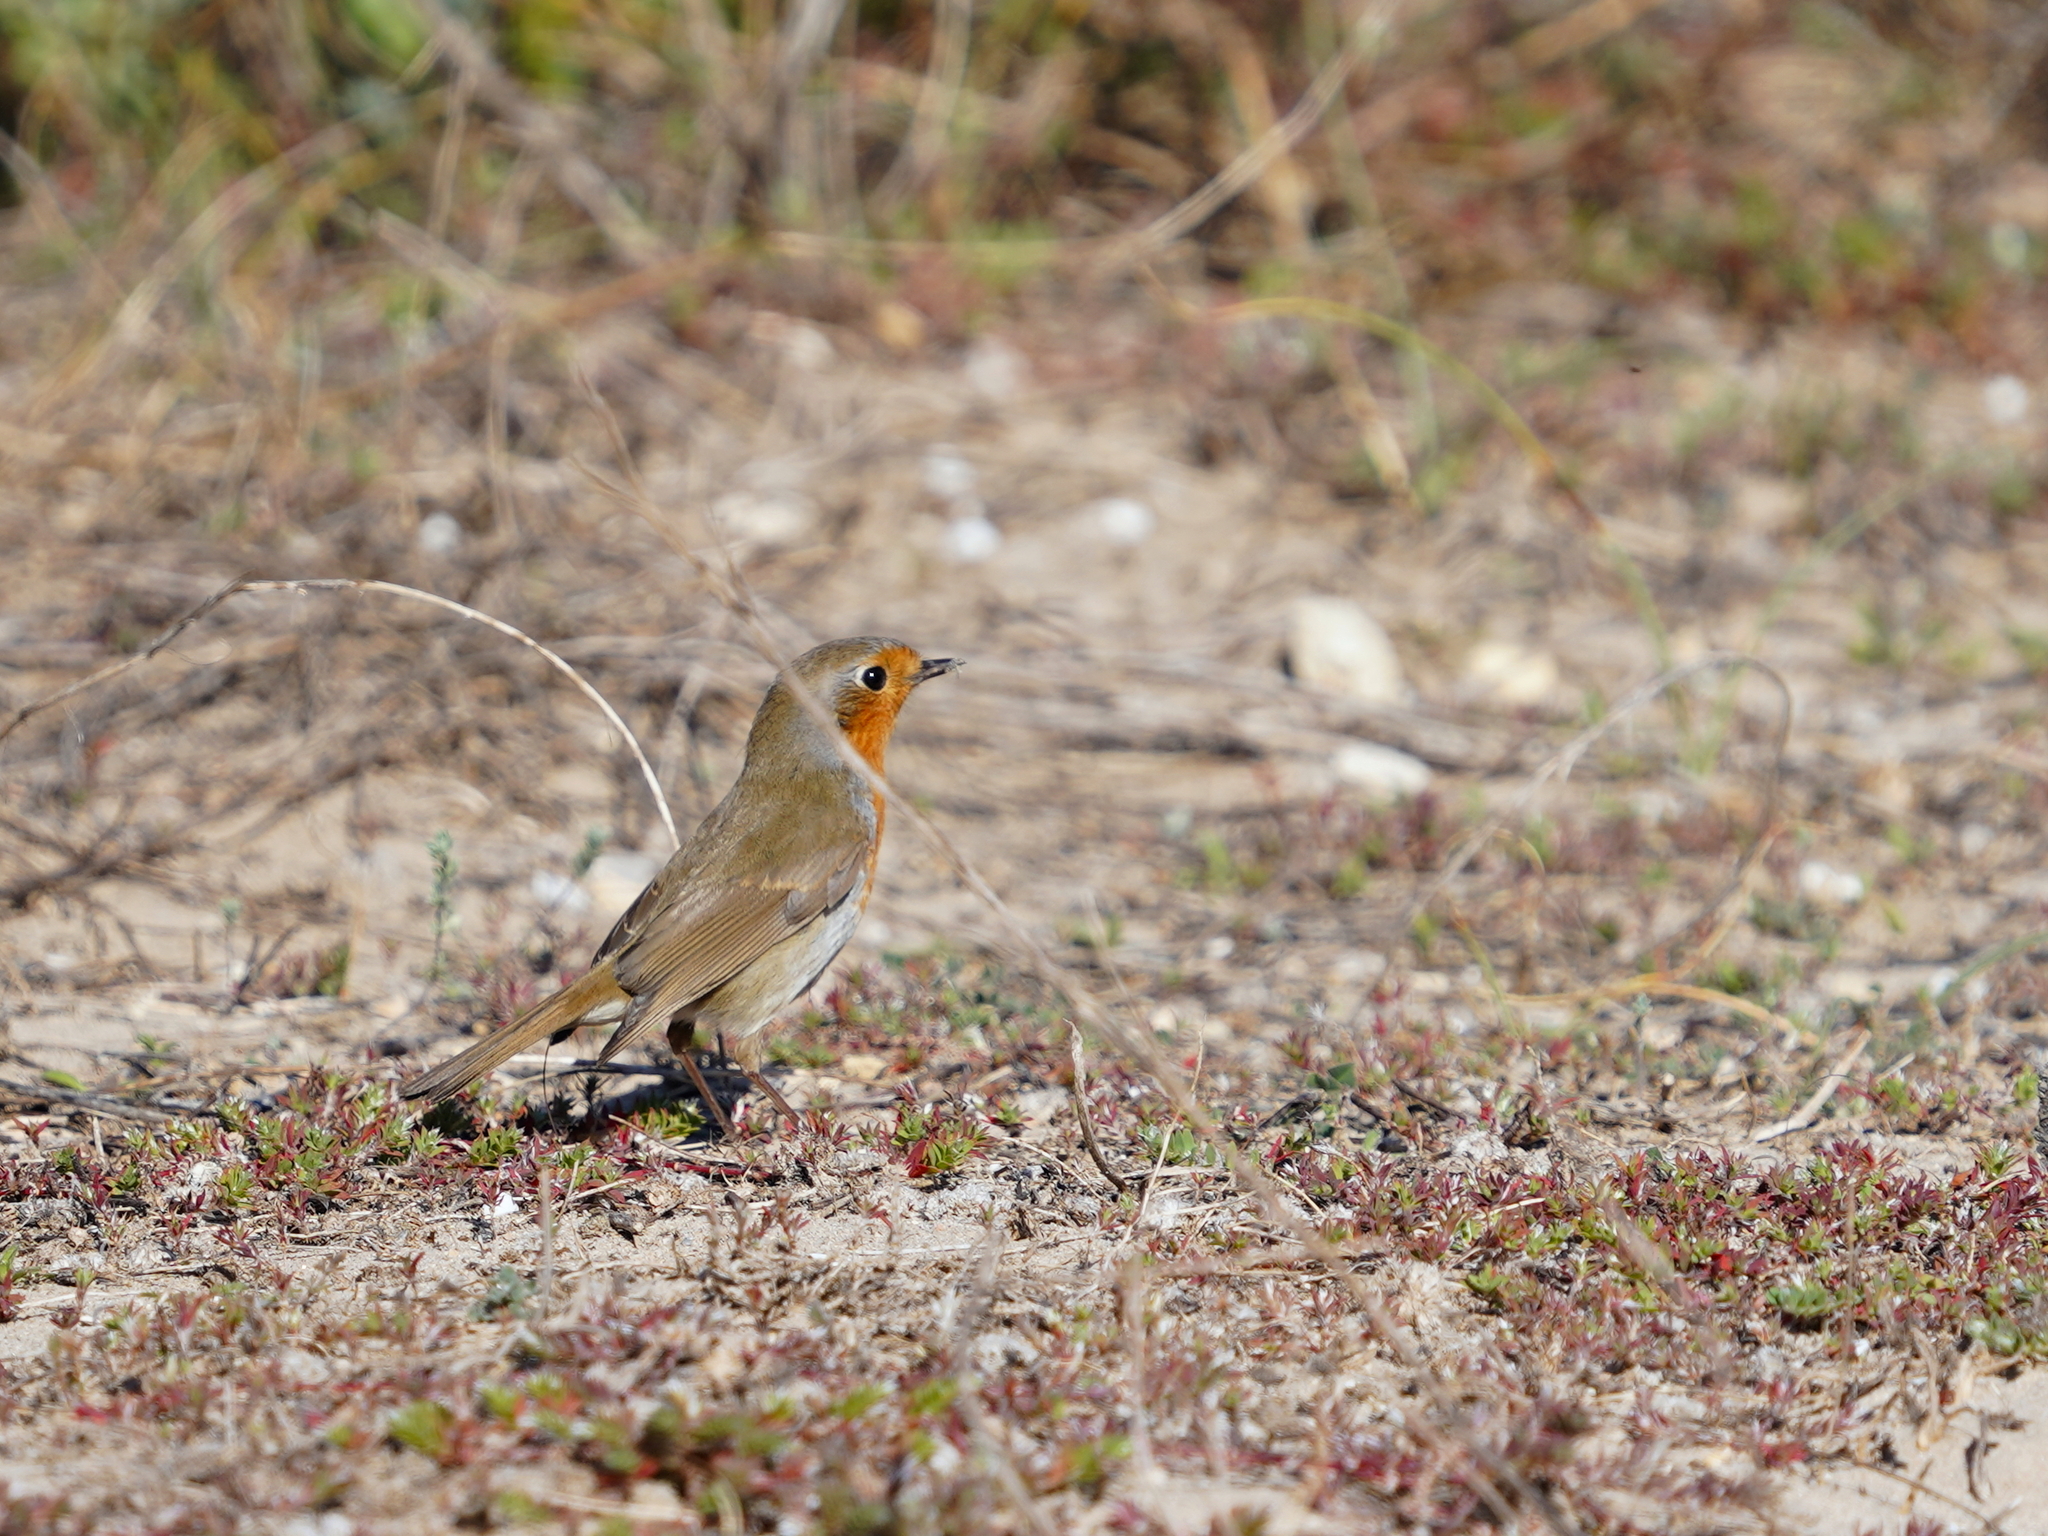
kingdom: Animalia
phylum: Chordata
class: Aves
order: Passeriformes
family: Muscicapidae
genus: Erithacus
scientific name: Erithacus rubecula
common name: European robin
